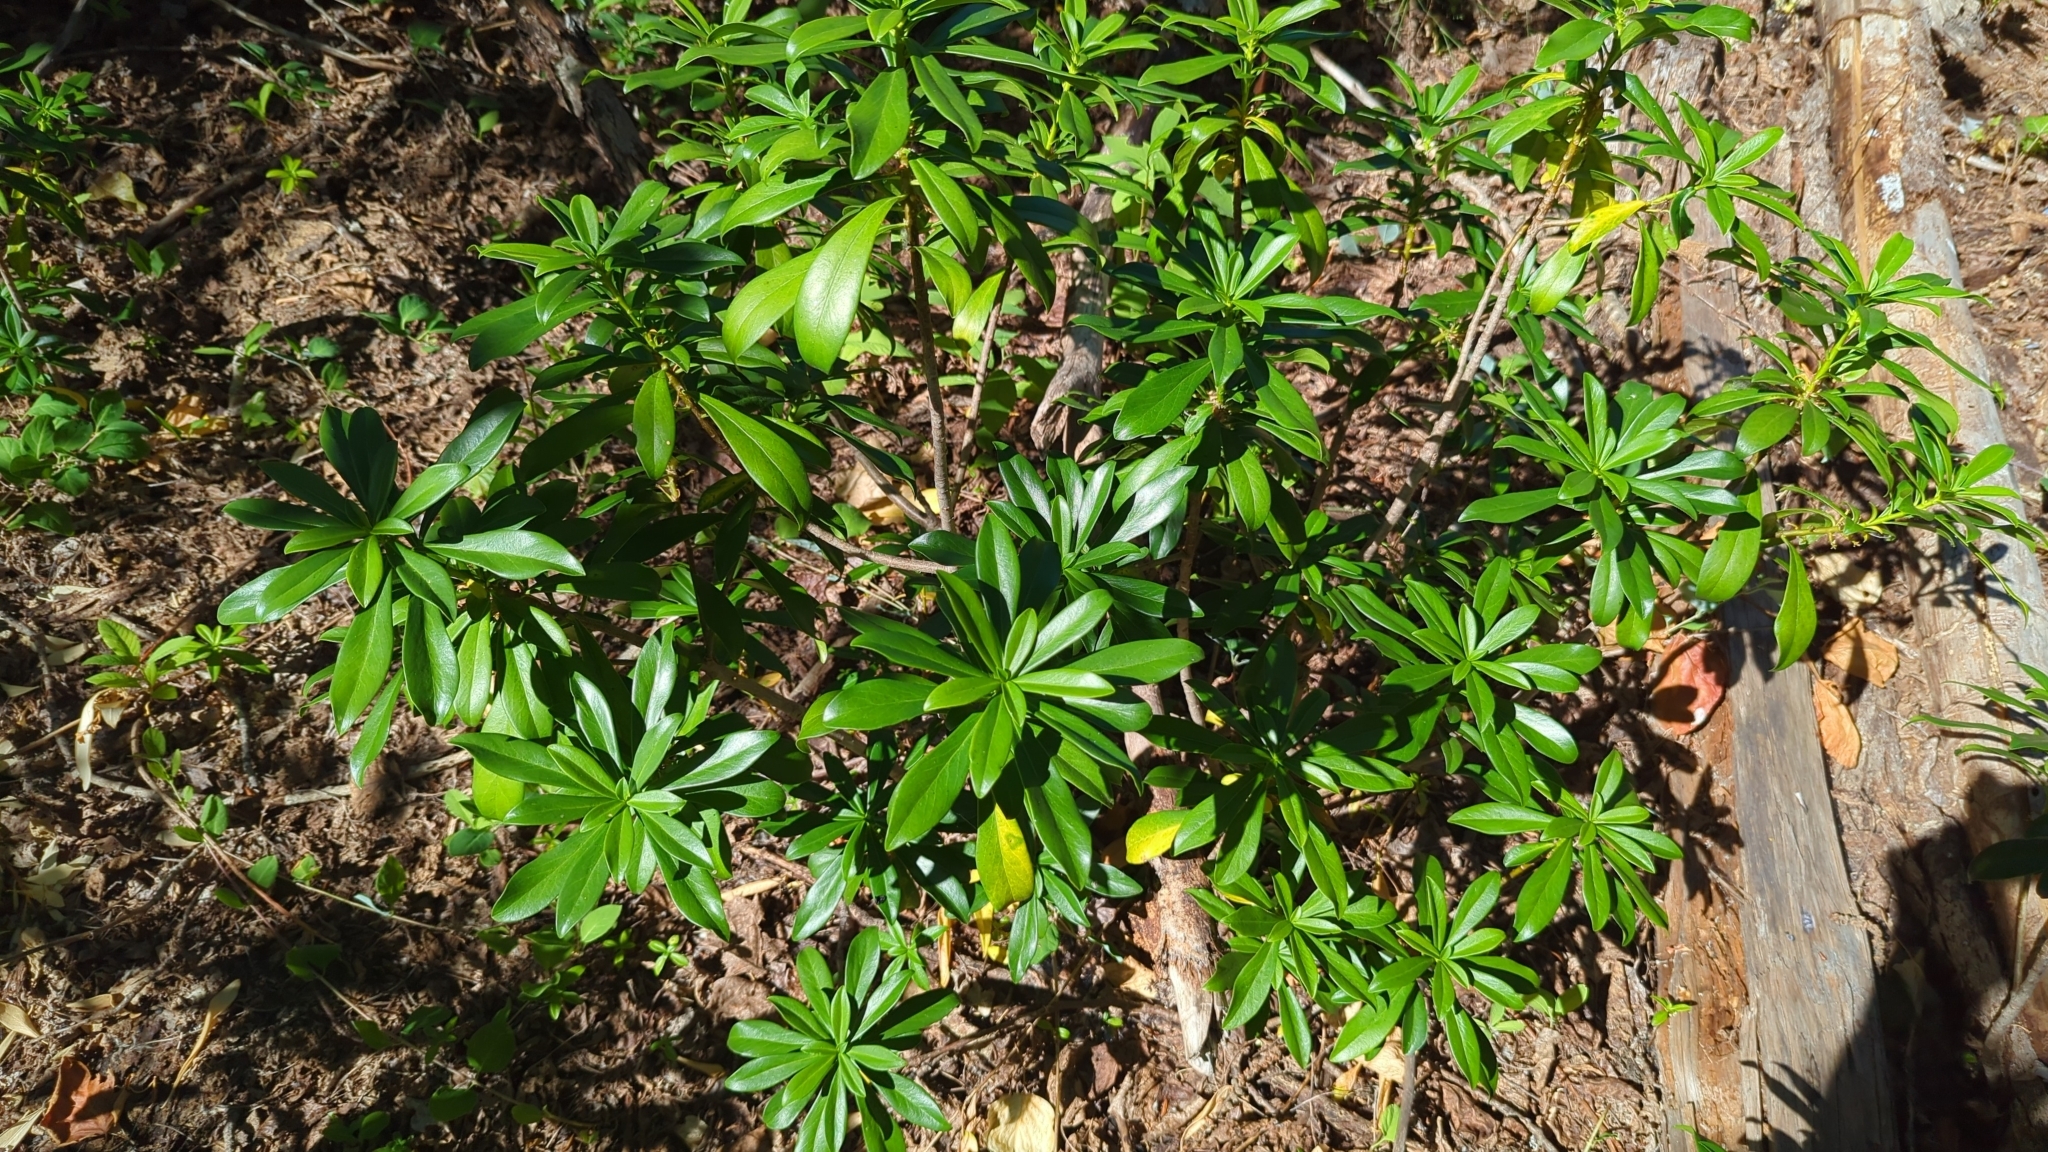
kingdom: Plantae
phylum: Tracheophyta
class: Magnoliopsida
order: Malvales
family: Thymelaeaceae
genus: Daphne
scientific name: Daphne laureola
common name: Spurge-laurel
